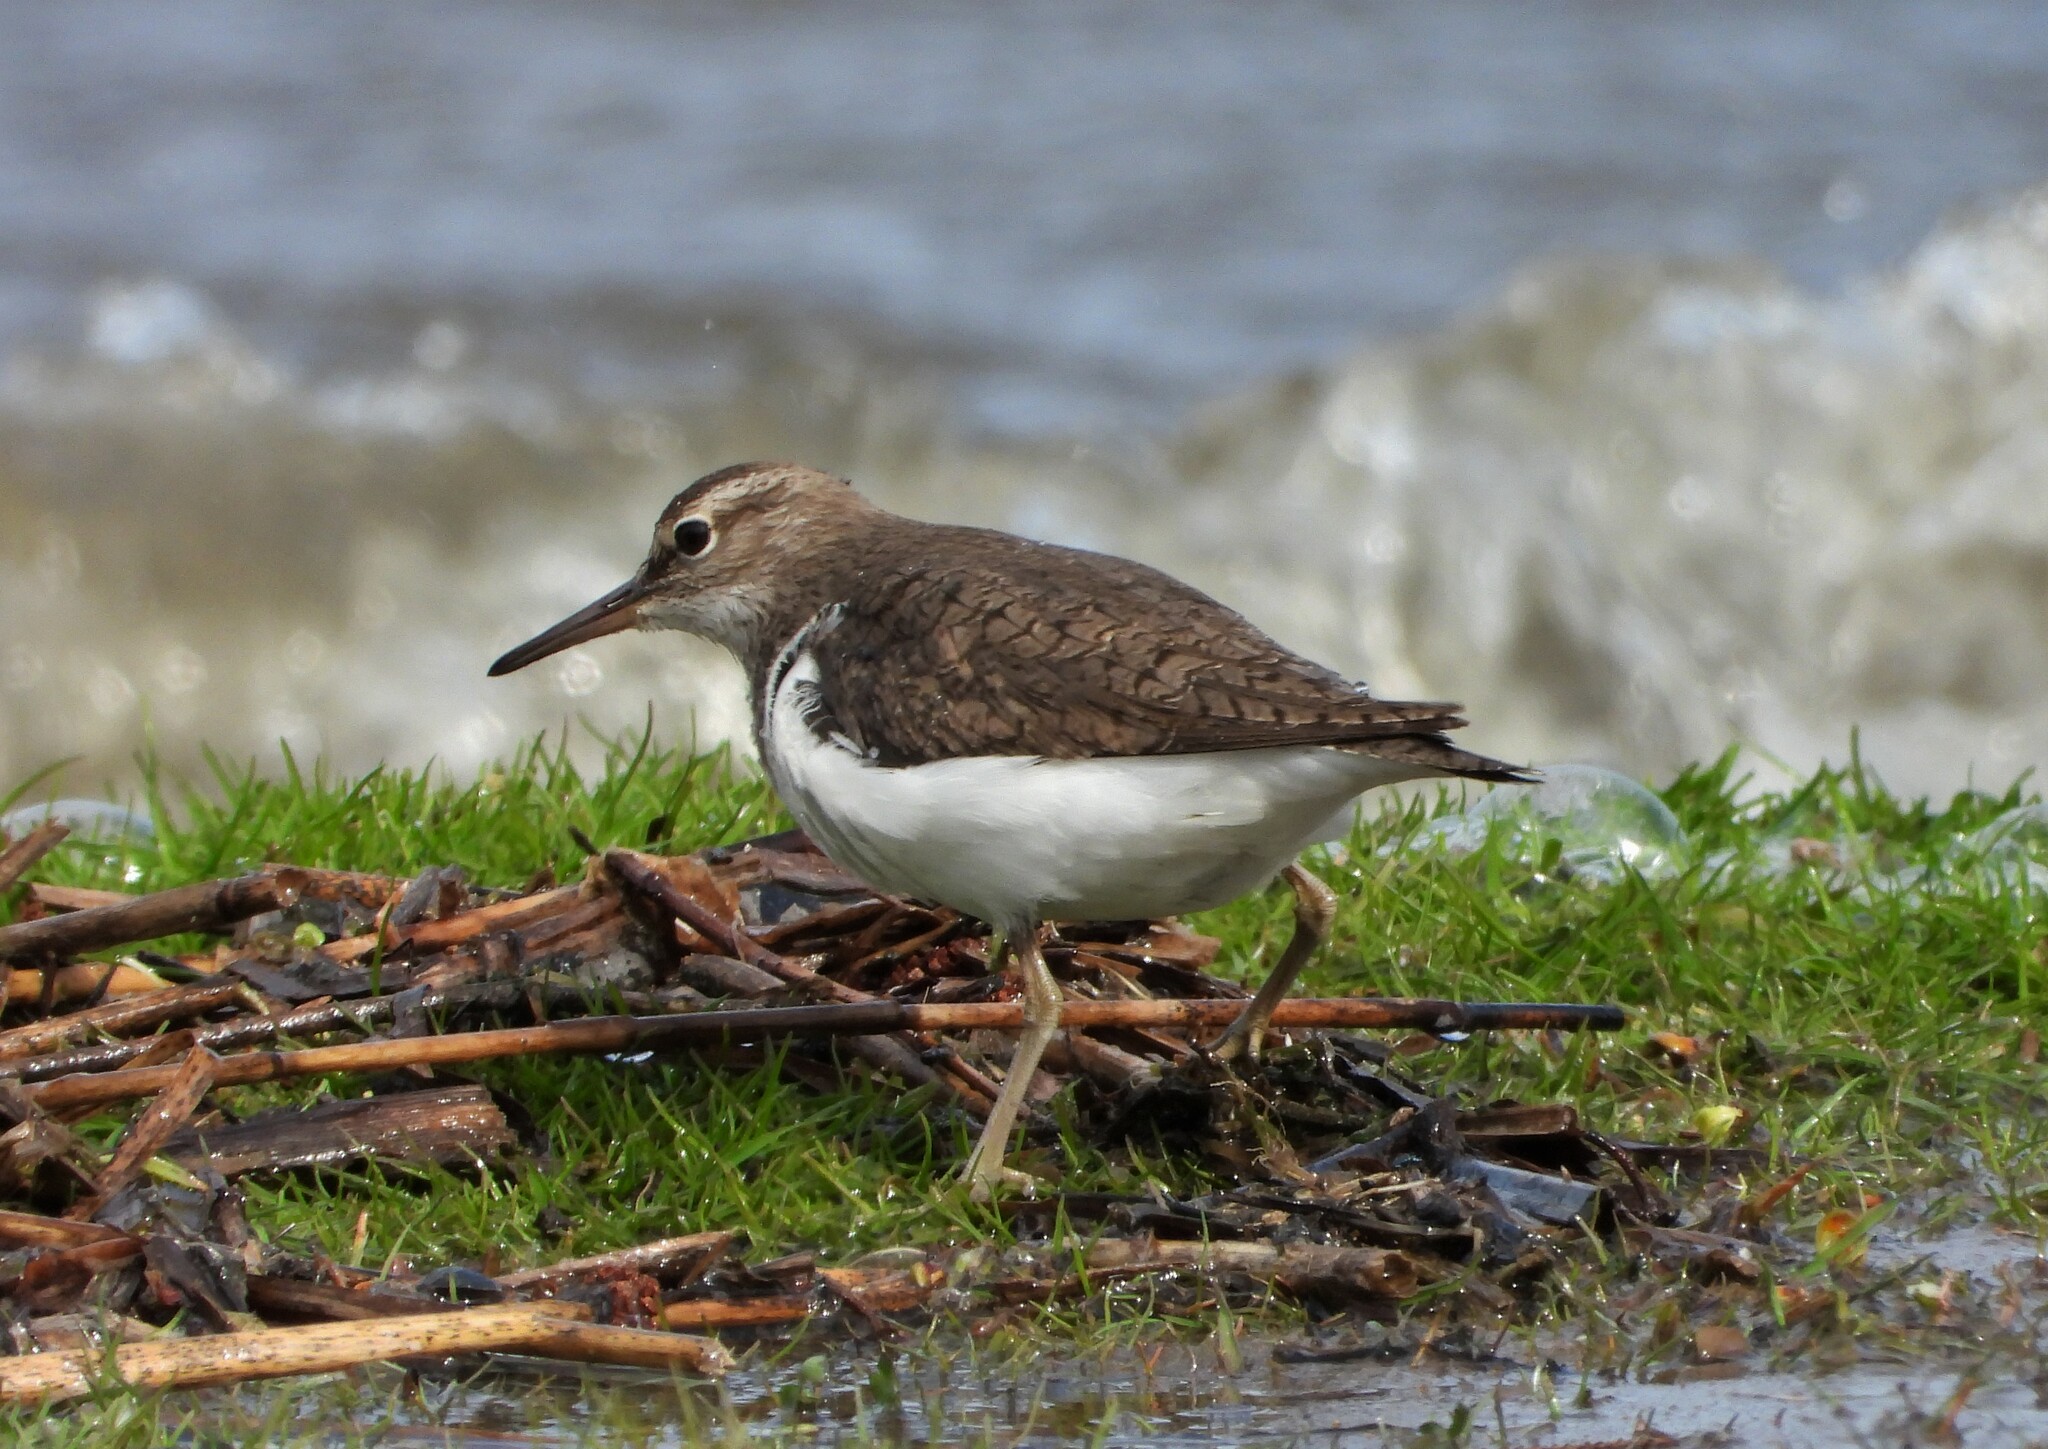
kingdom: Animalia
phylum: Chordata
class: Aves
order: Charadriiformes
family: Scolopacidae
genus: Actitis
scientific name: Actitis hypoleucos
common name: Common sandpiper
